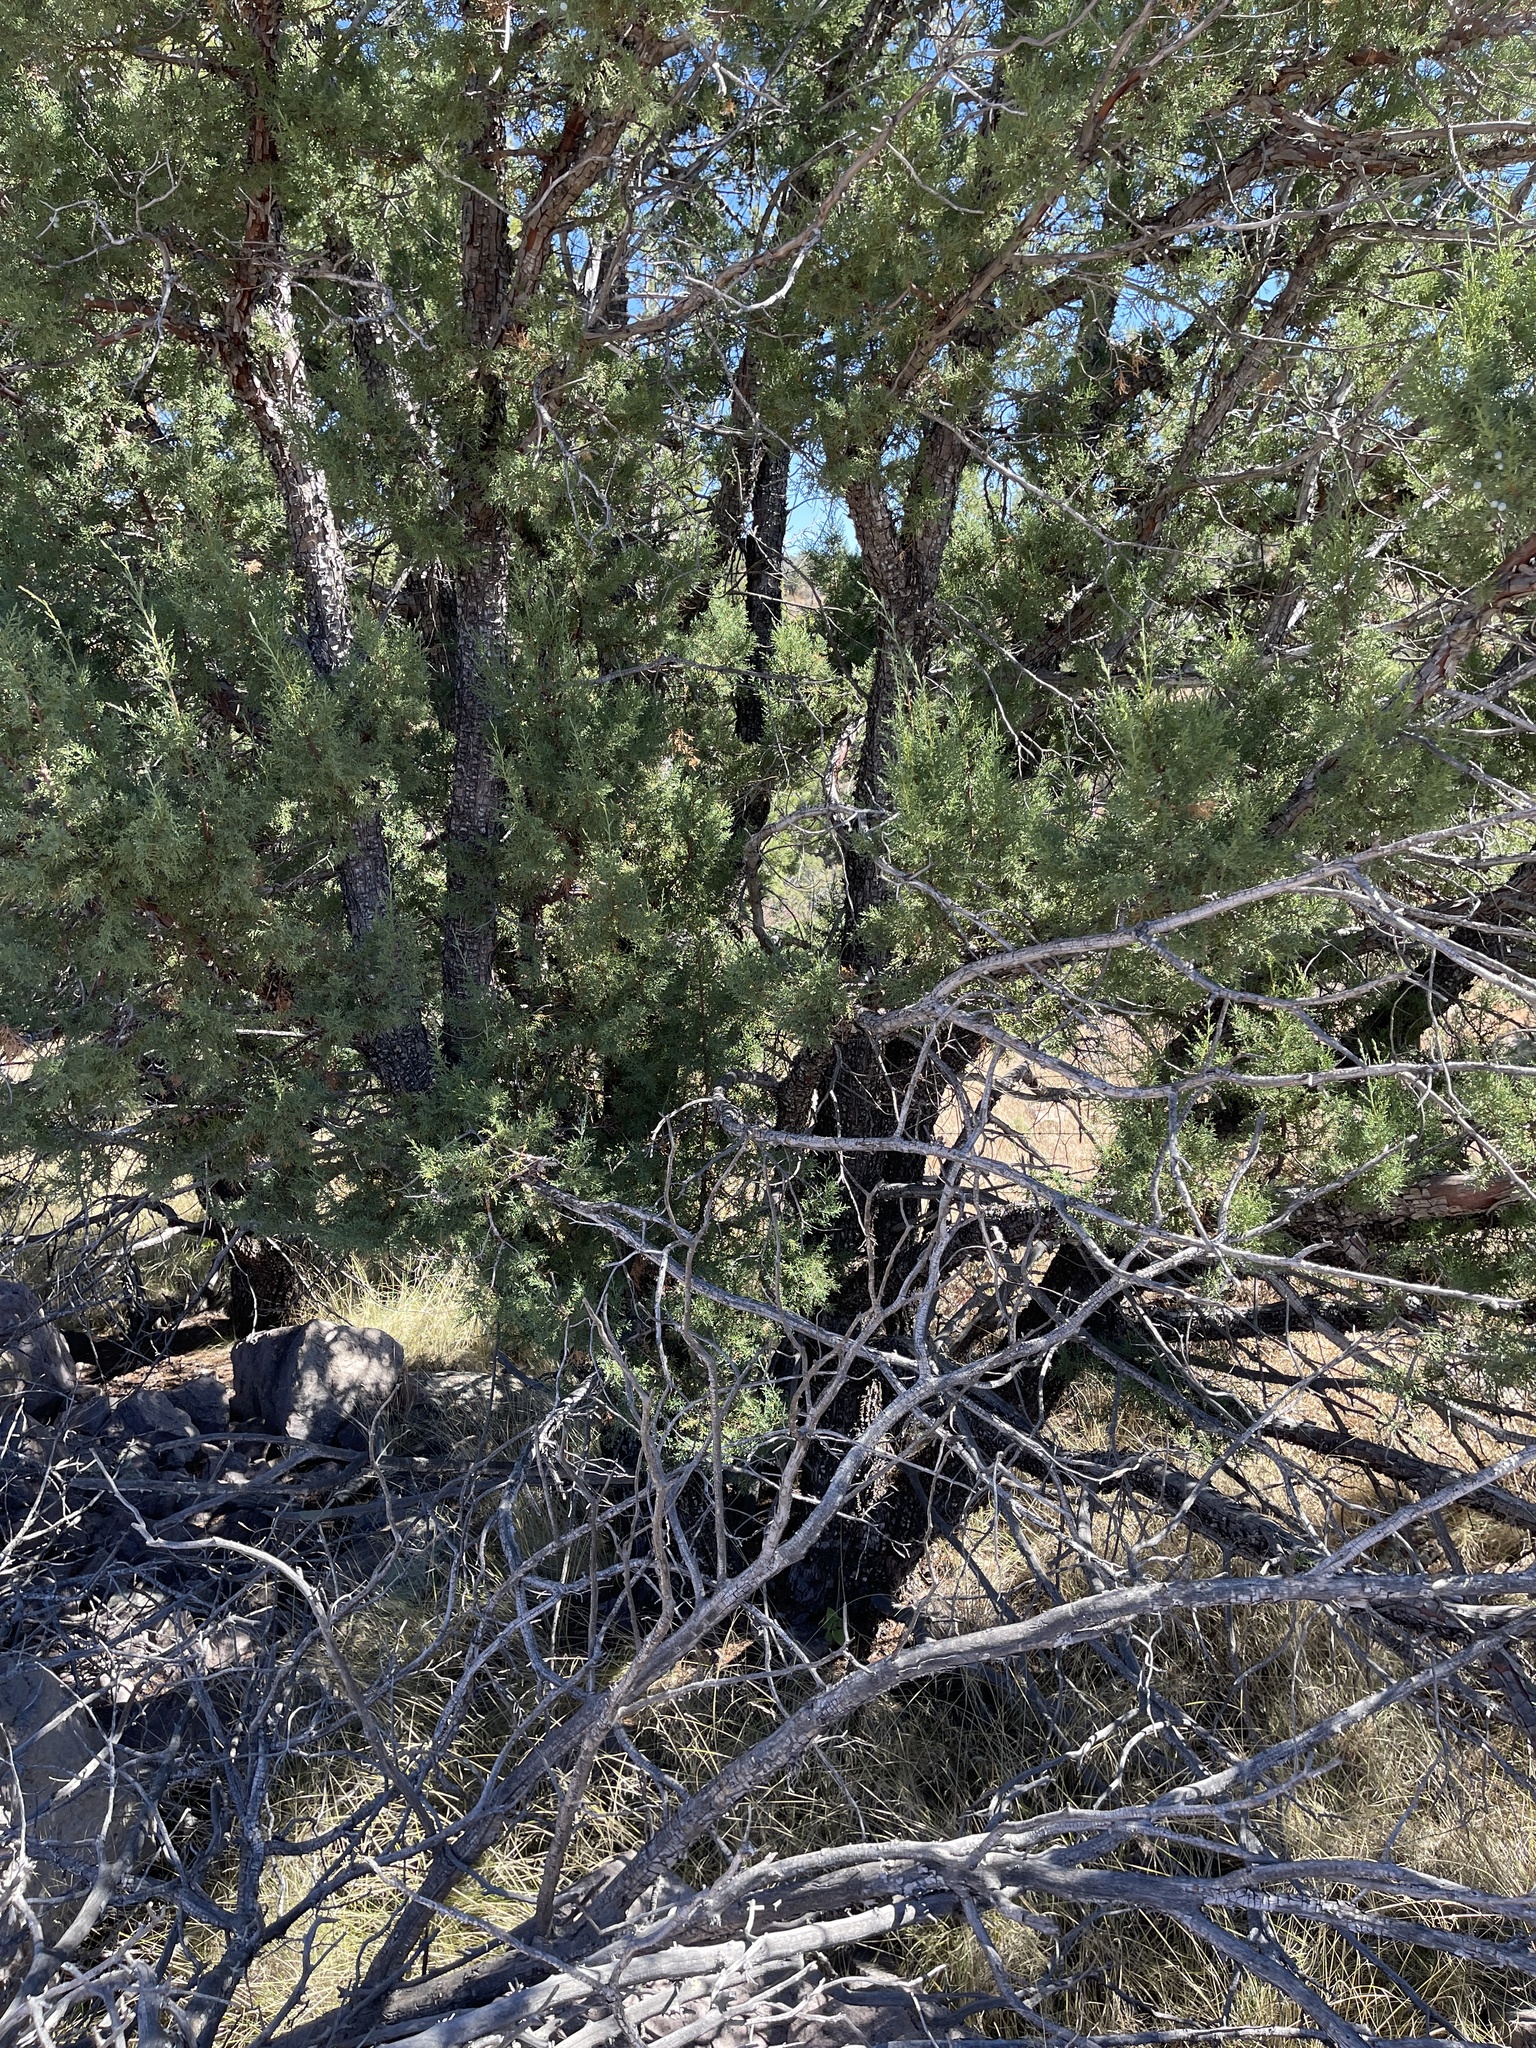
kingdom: Plantae
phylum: Tracheophyta
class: Pinopsida
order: Pinales
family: Cupressaceae
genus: Juniperus
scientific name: Juniperus deppeana
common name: Alligator juniper
